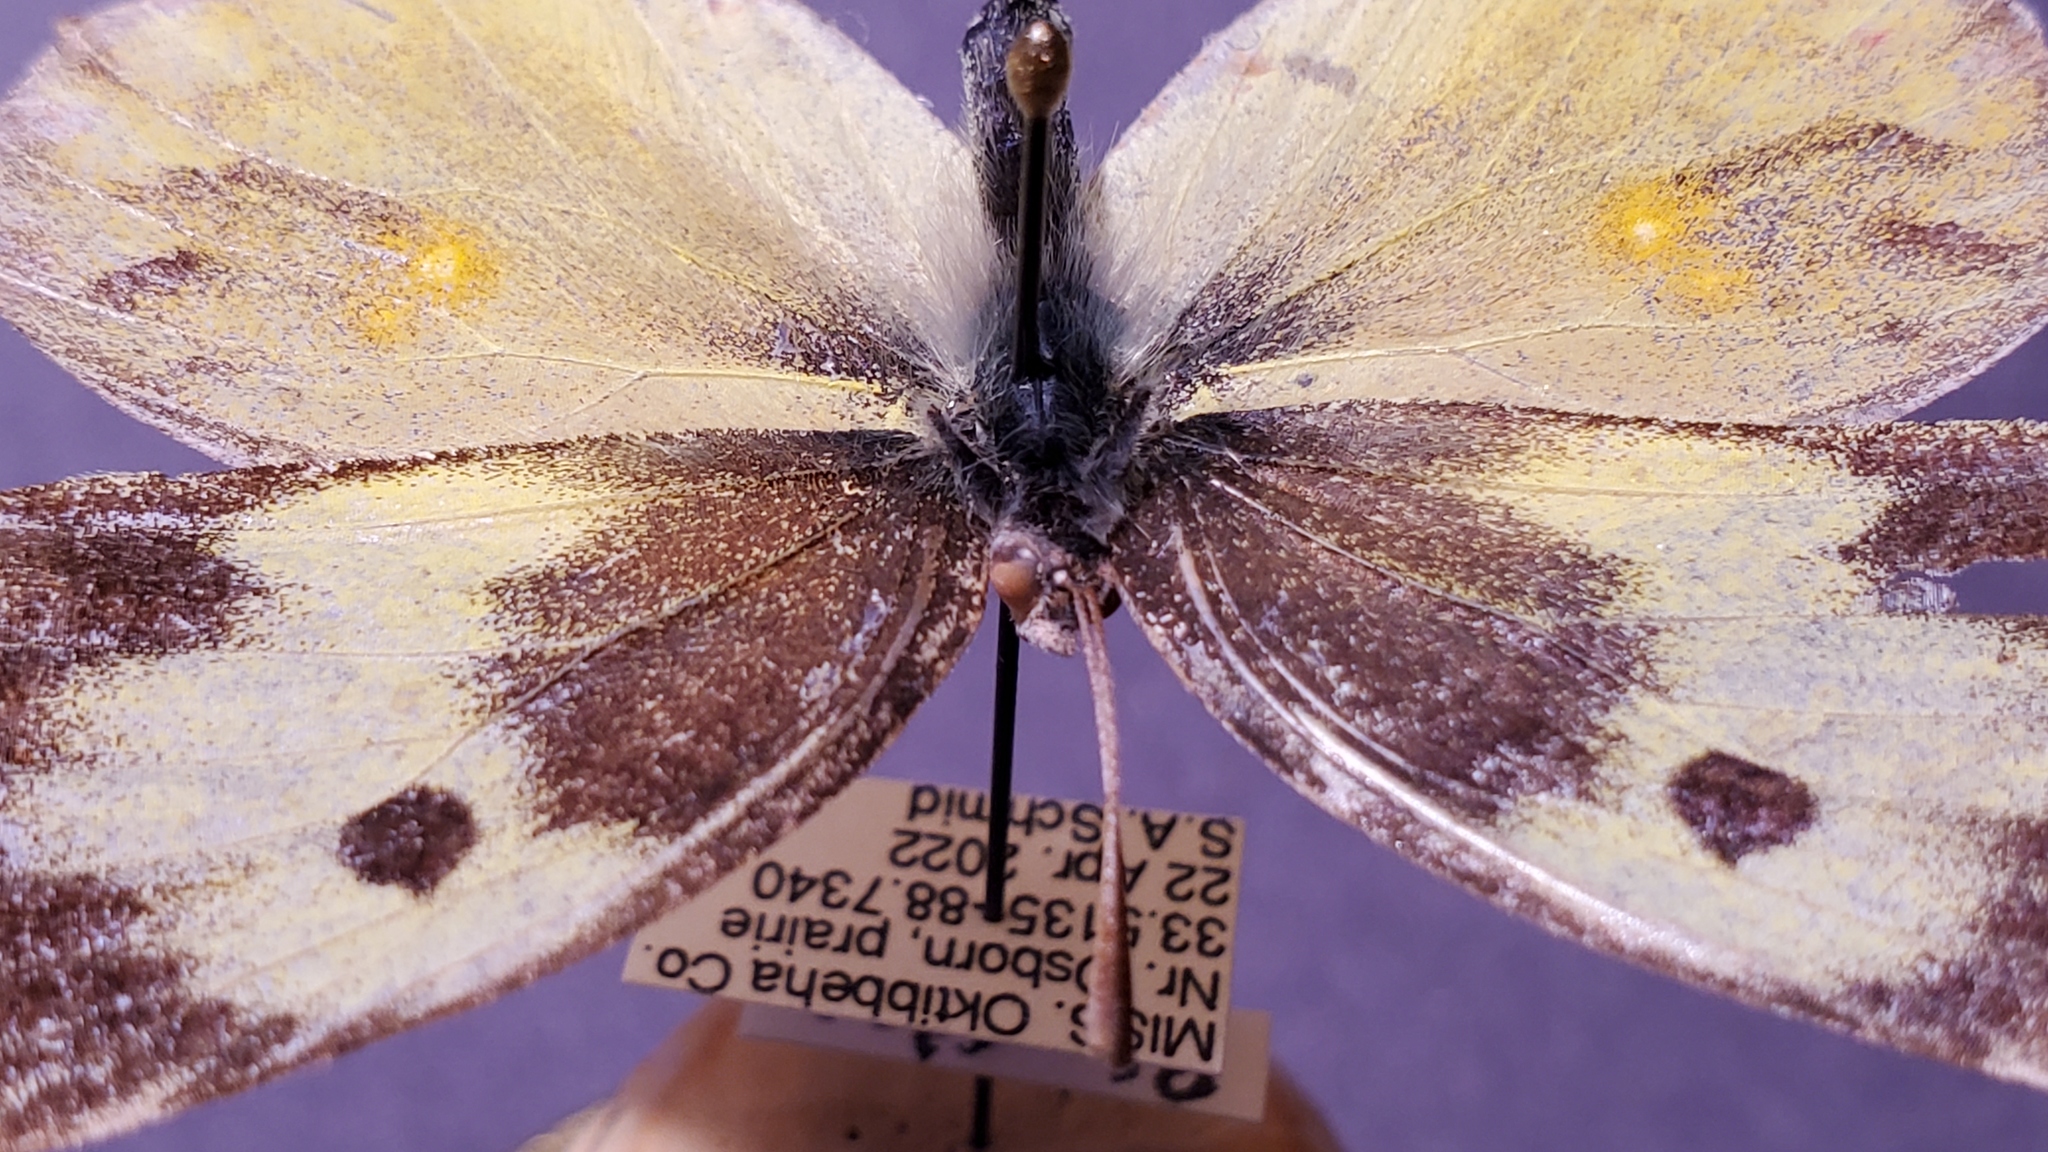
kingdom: Animalia
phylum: Arthropoda
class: Insecta
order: Lepidoptera
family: Pieridae
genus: Zerene
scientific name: Zerene cesonia
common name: Southern dogface
